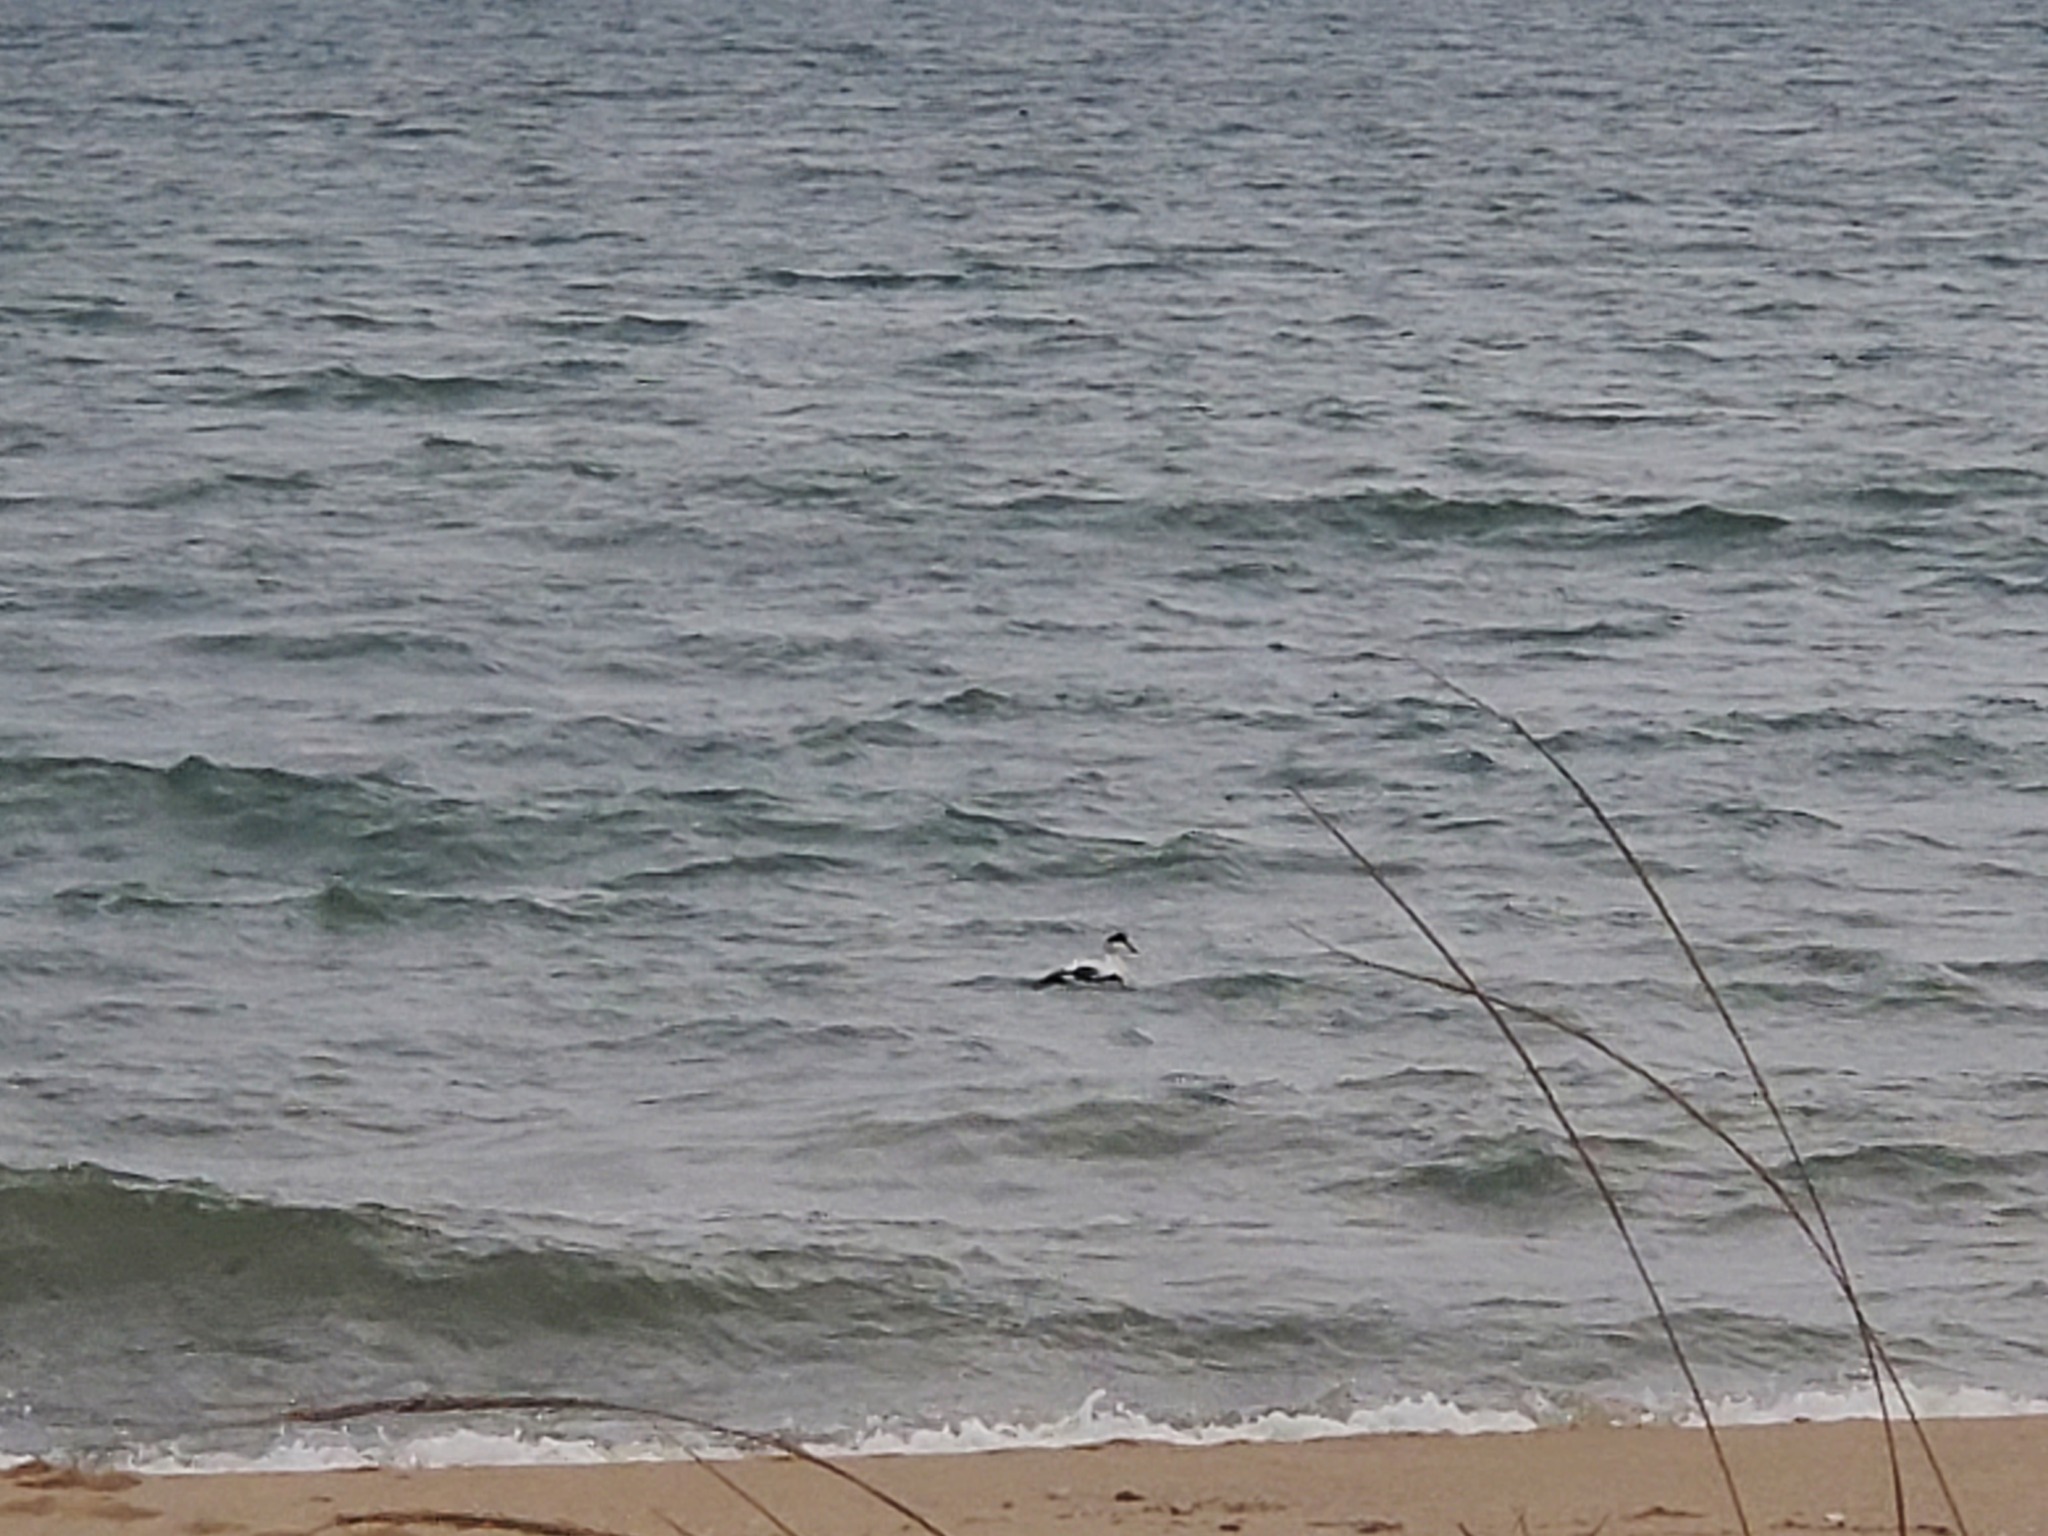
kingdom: Animalia
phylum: Chordata
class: Aves
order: Anseriformes
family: Anatidae
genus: Somateria
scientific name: Somateria mollissima
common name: Common eider
